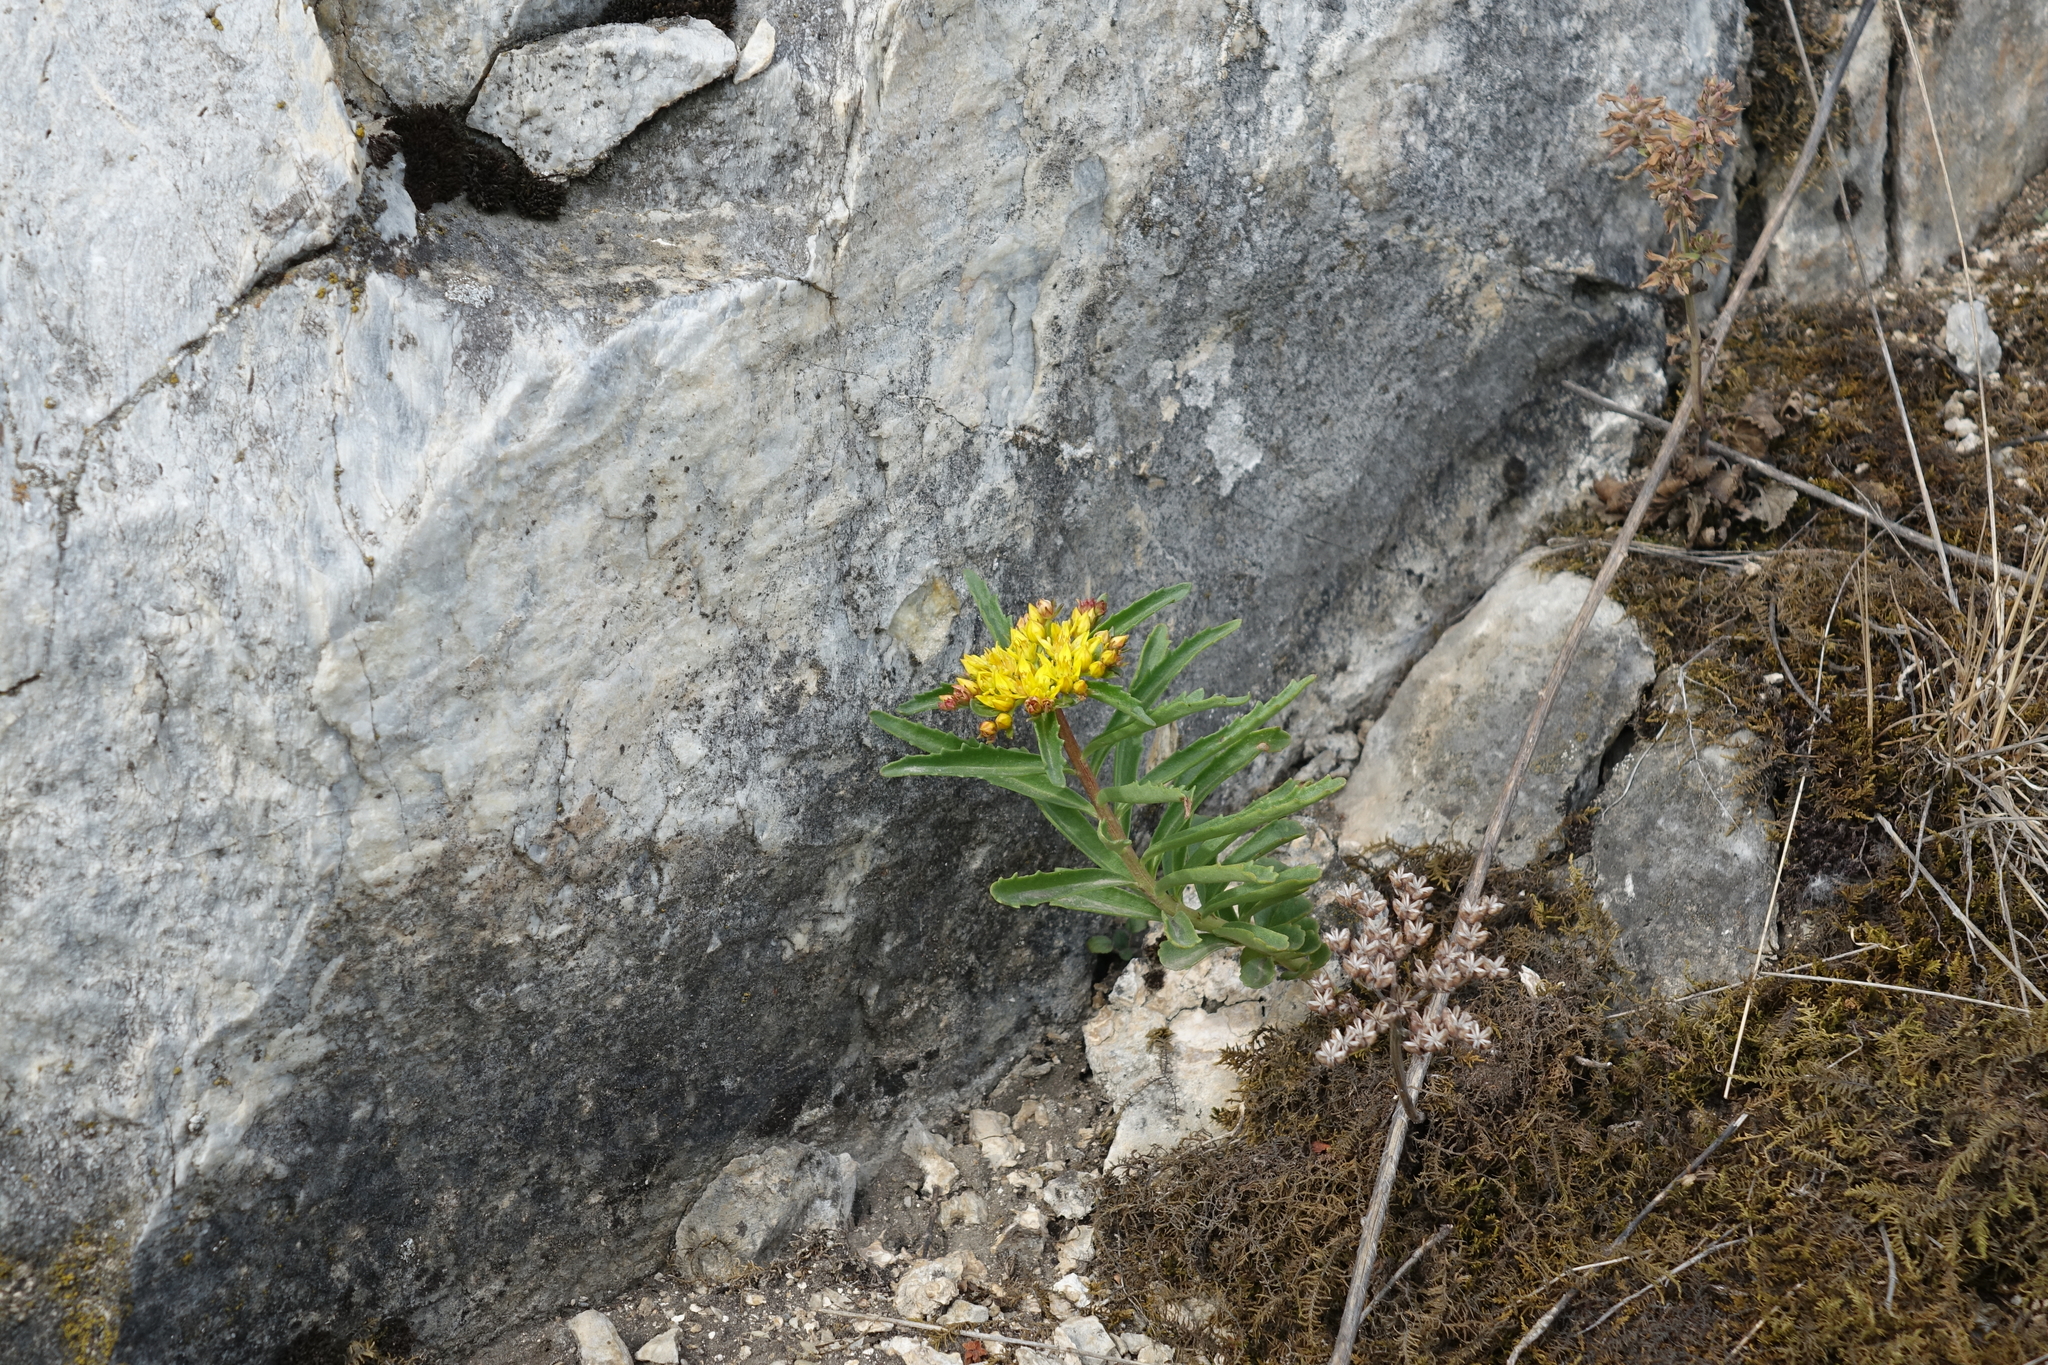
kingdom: Plantae
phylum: Tracheophyta
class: Magnoliopsida
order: Saxifragales
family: Crassulaceae
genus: Phedimus
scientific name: Phedimus aizoon
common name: Orpin aizoon
